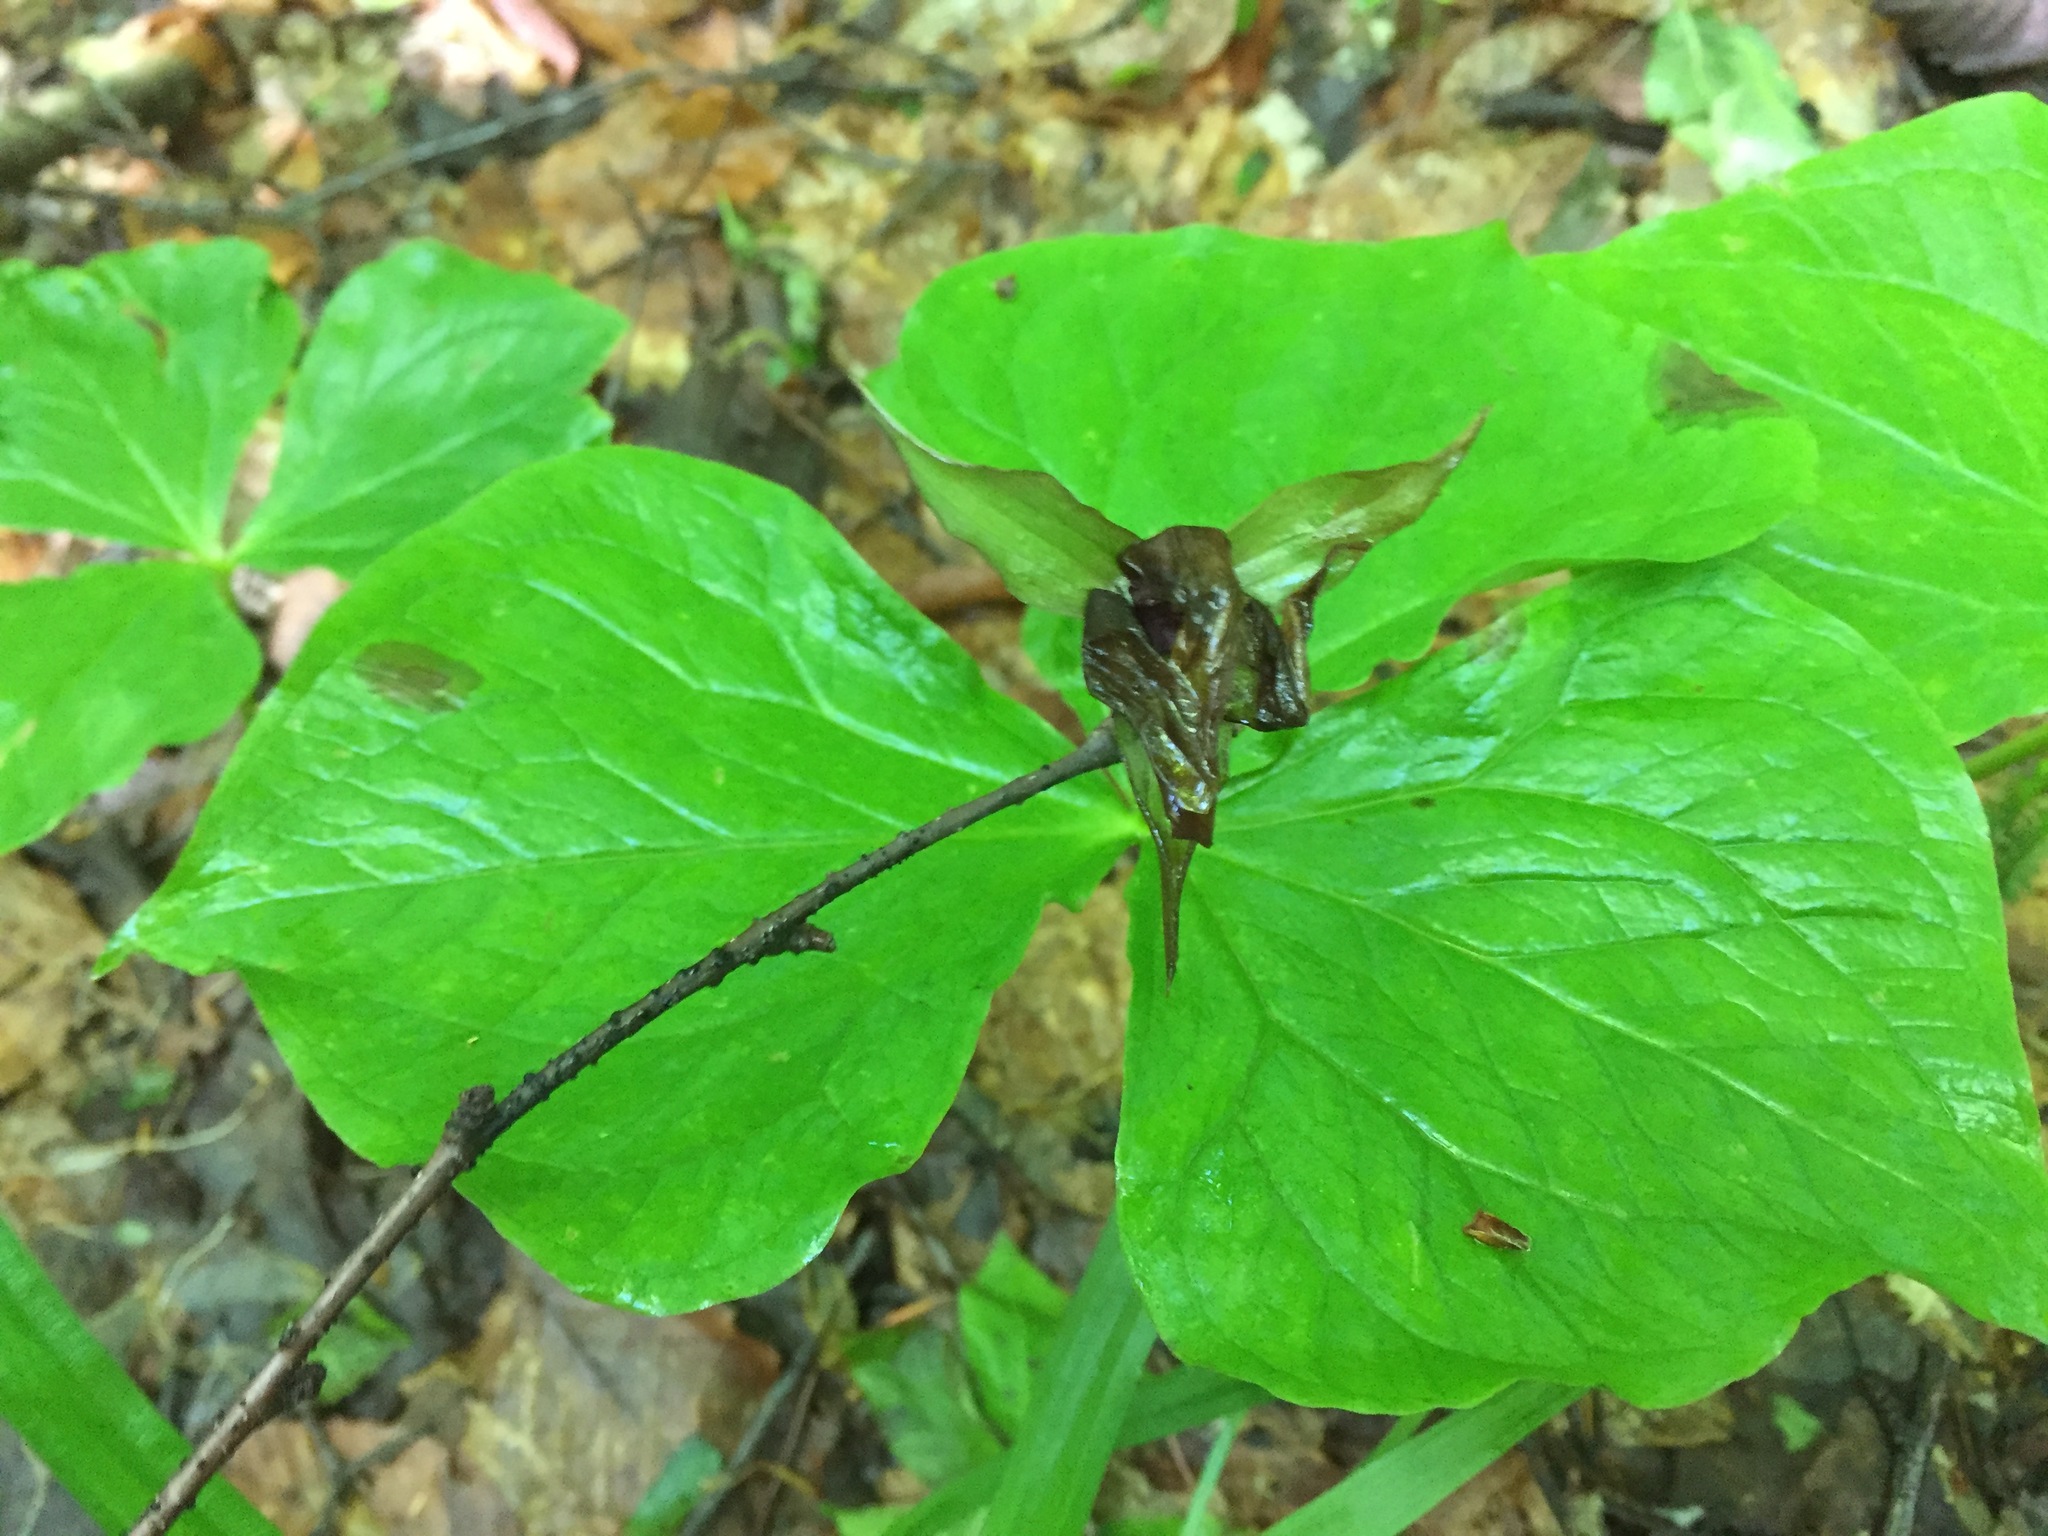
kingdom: Plantae
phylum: Tracheophyta
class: Liliopsida
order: Liliales
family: Melanthiaceae
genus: Trillium
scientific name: Trillium erectum
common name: Purple trillium
